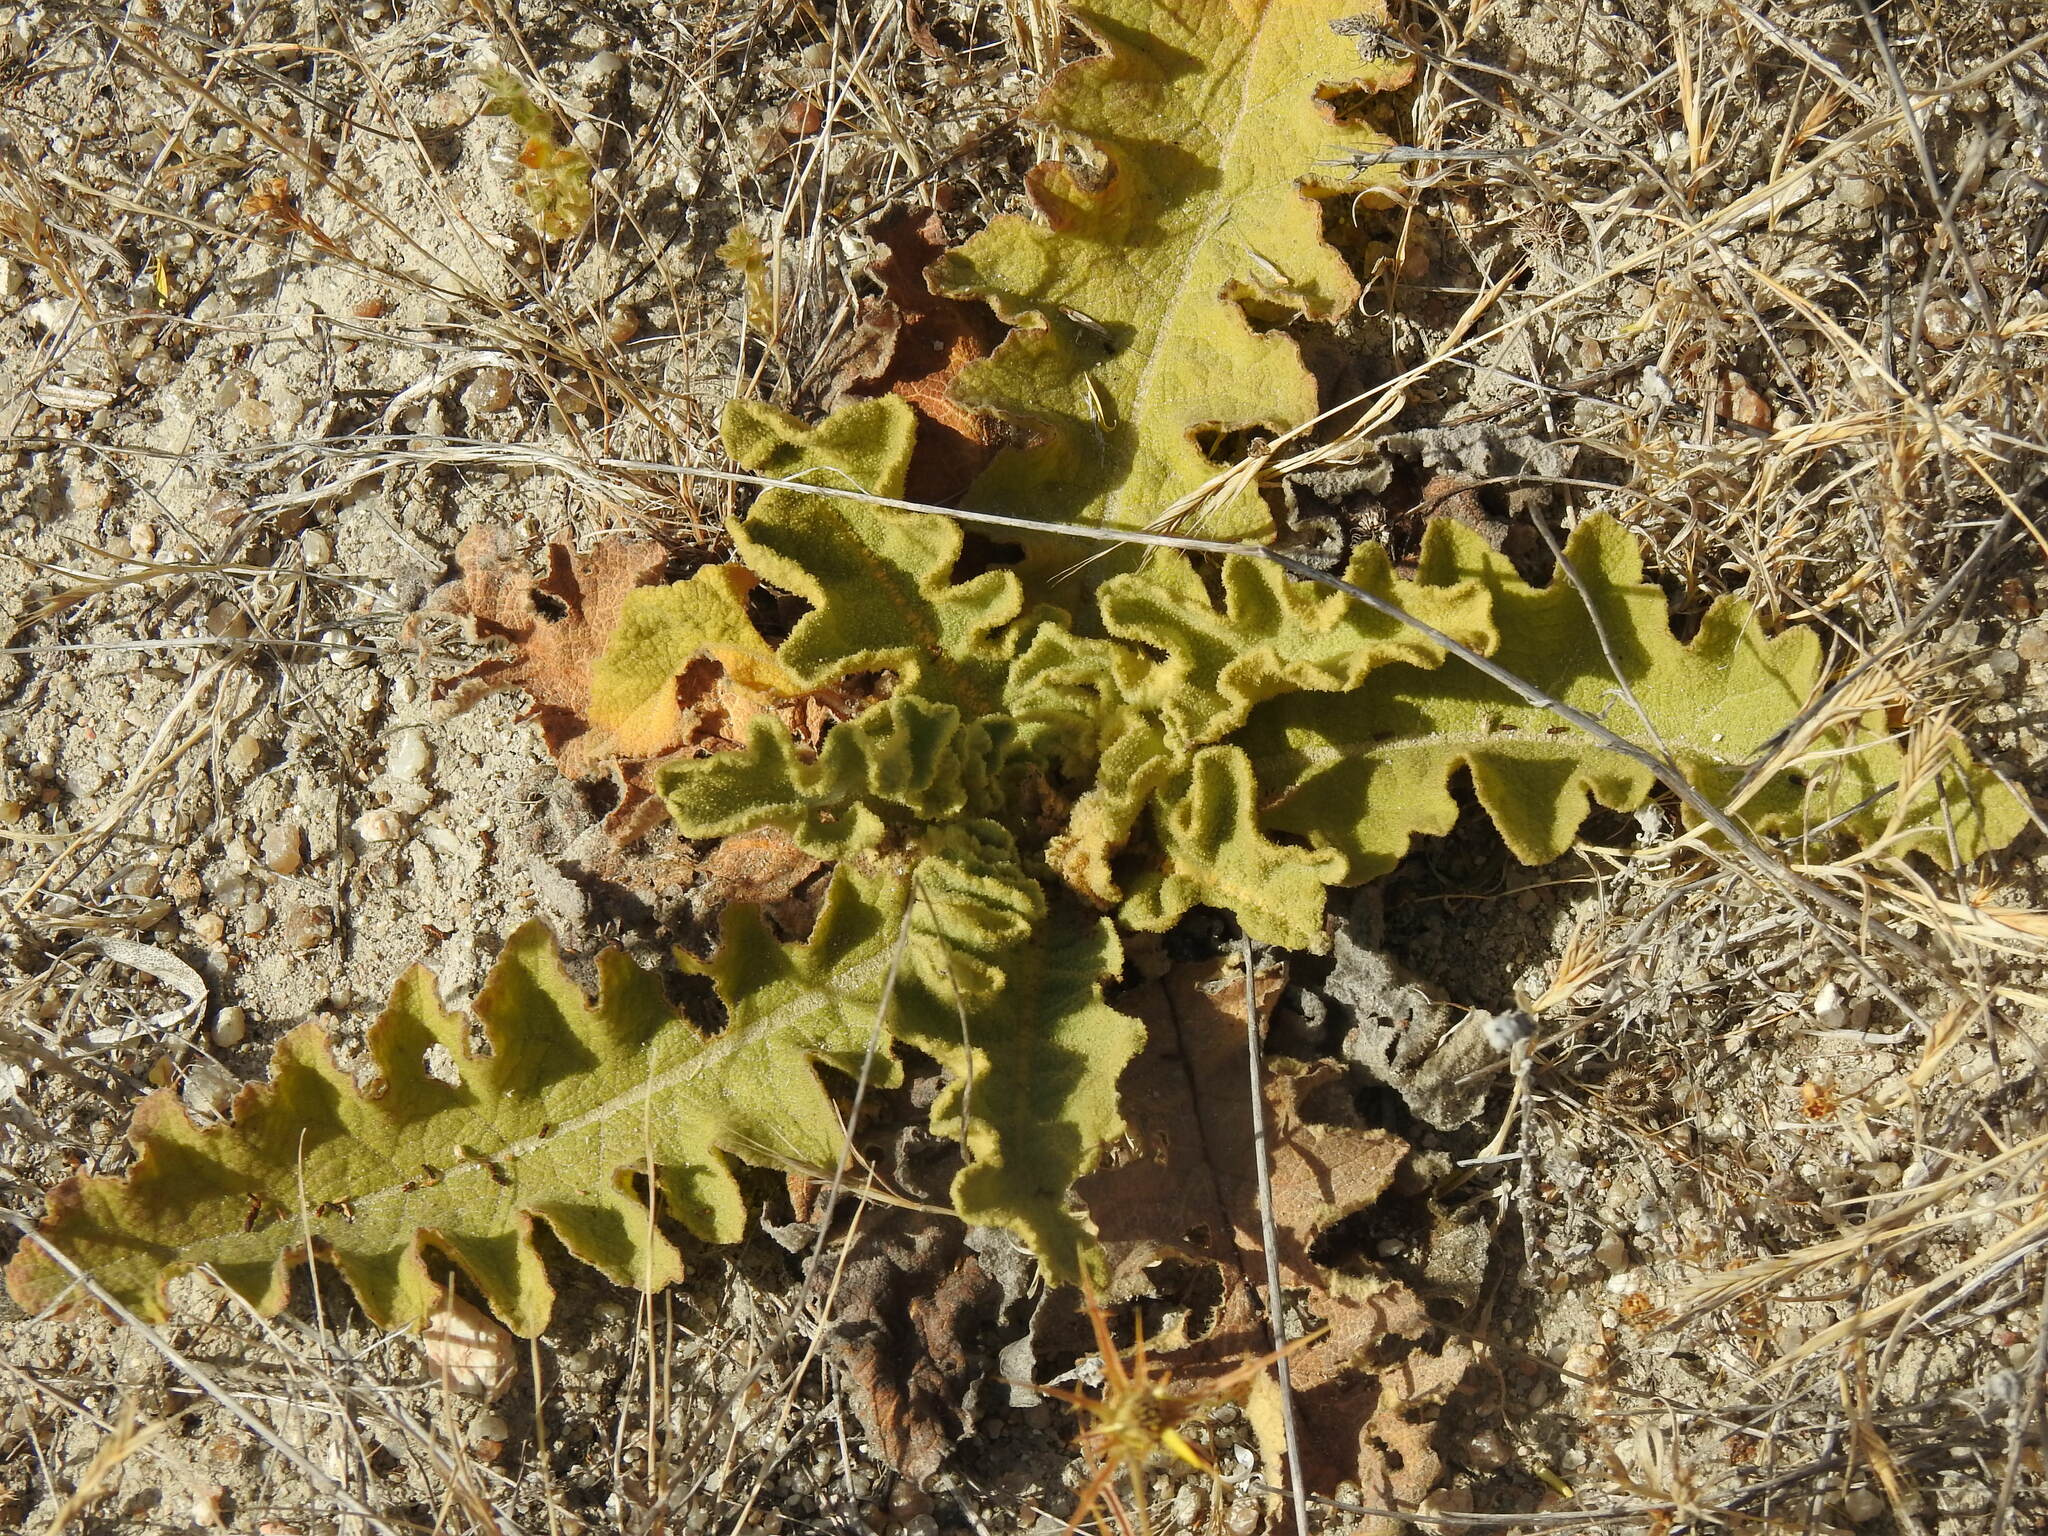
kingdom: Plantae
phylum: Tracheophyta
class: Magnoliopsida
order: Lamiales
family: Scrophulariaceae
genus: Verbascum
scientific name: Verbascum sinuatum
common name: Wavyleaf mullein
